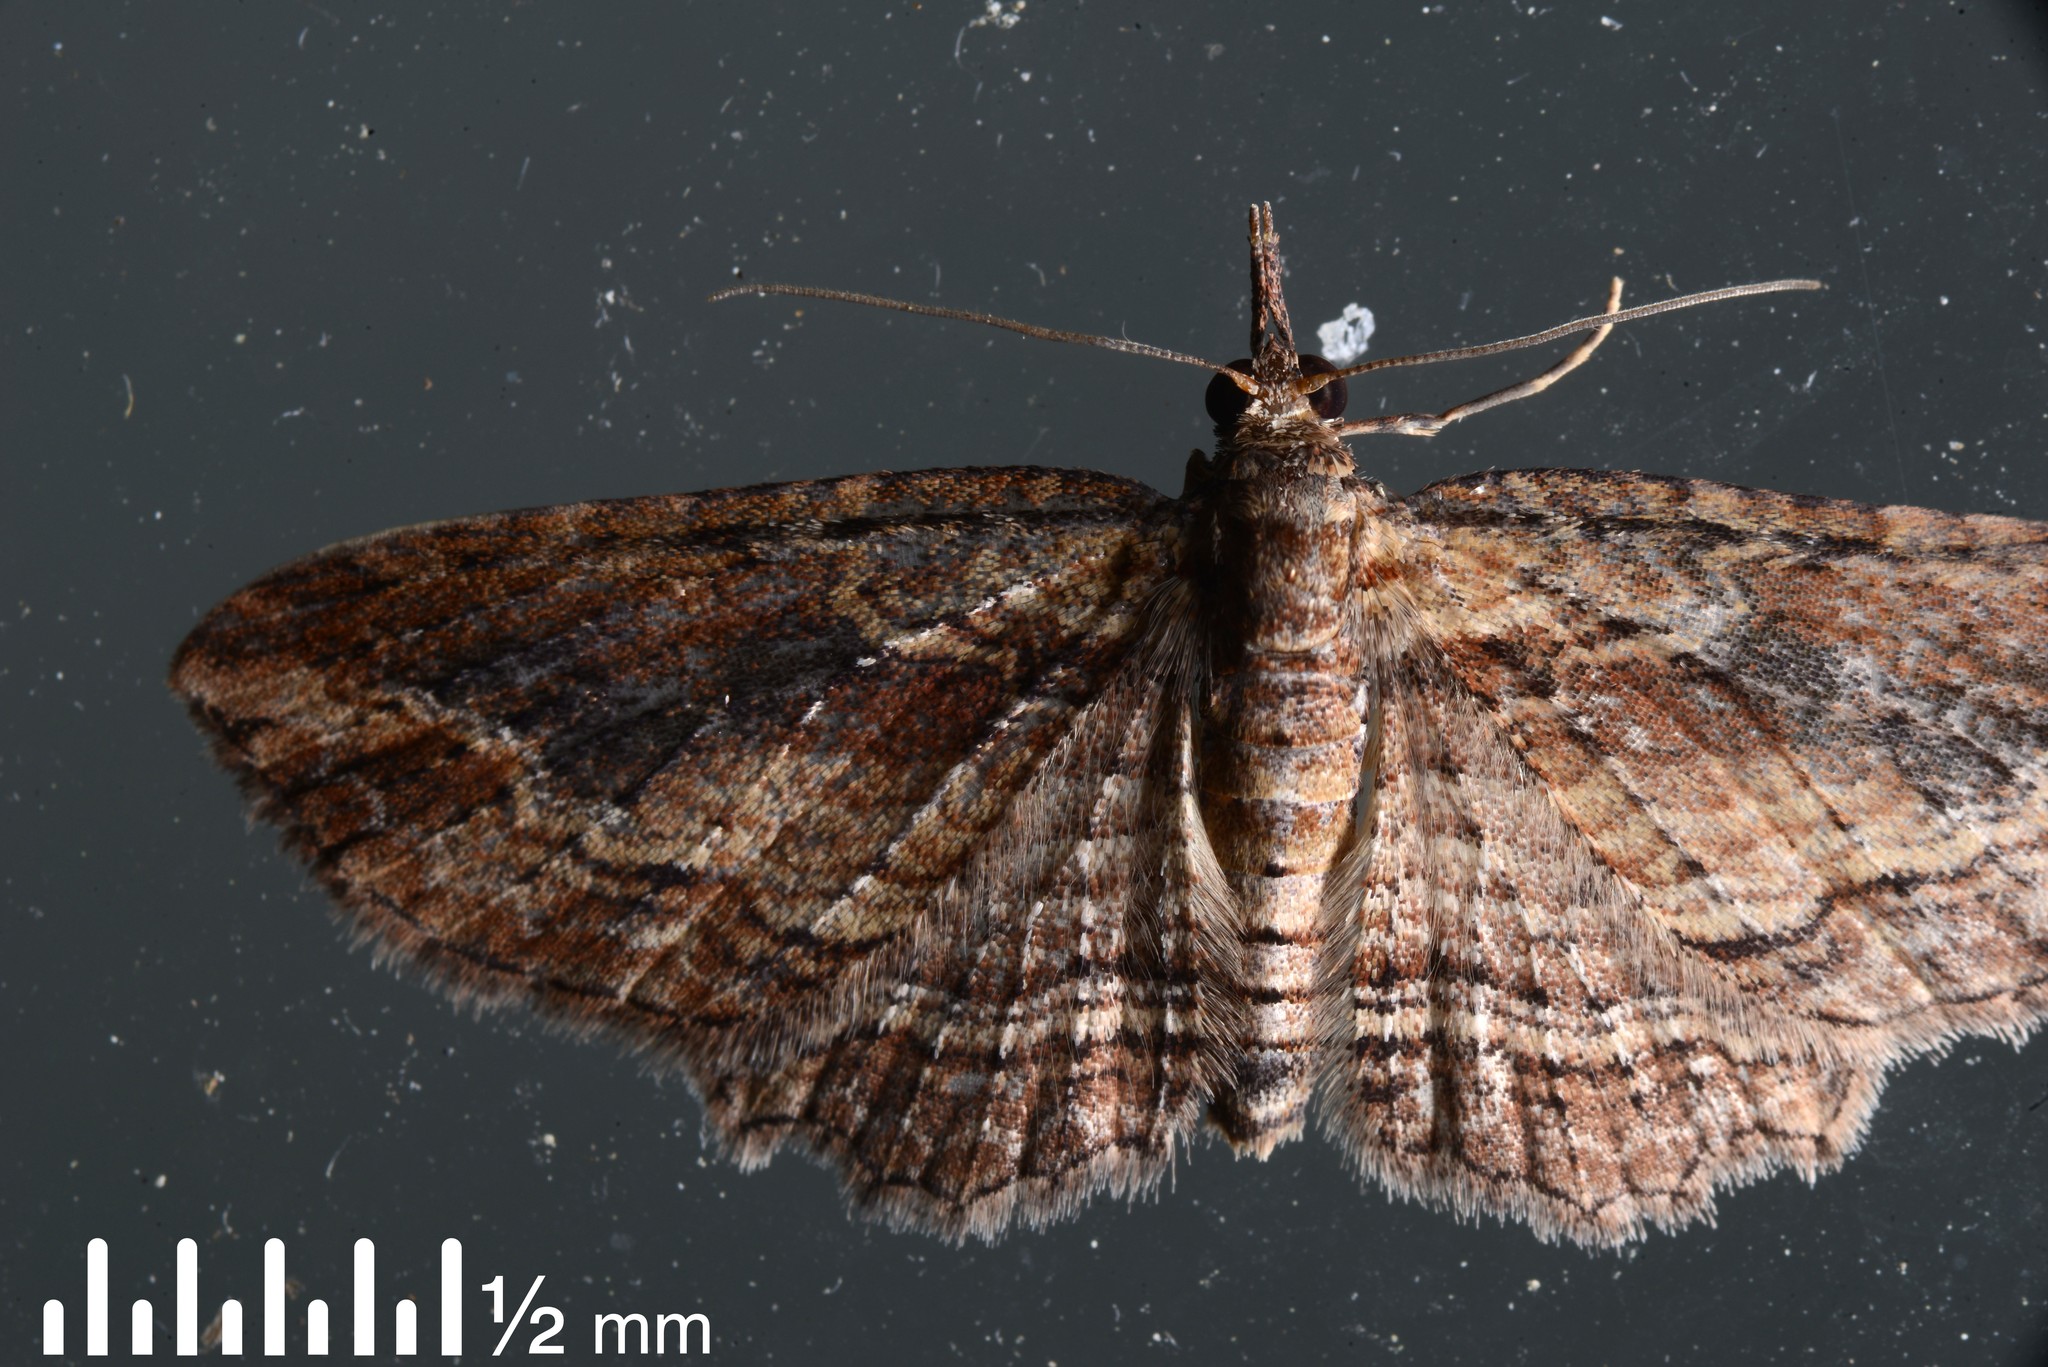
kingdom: Animalia
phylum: Arthropoda
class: Insecta
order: Lepidoptera
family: Geometridae
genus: Chloroclystis
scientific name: Chloroclystis filata
